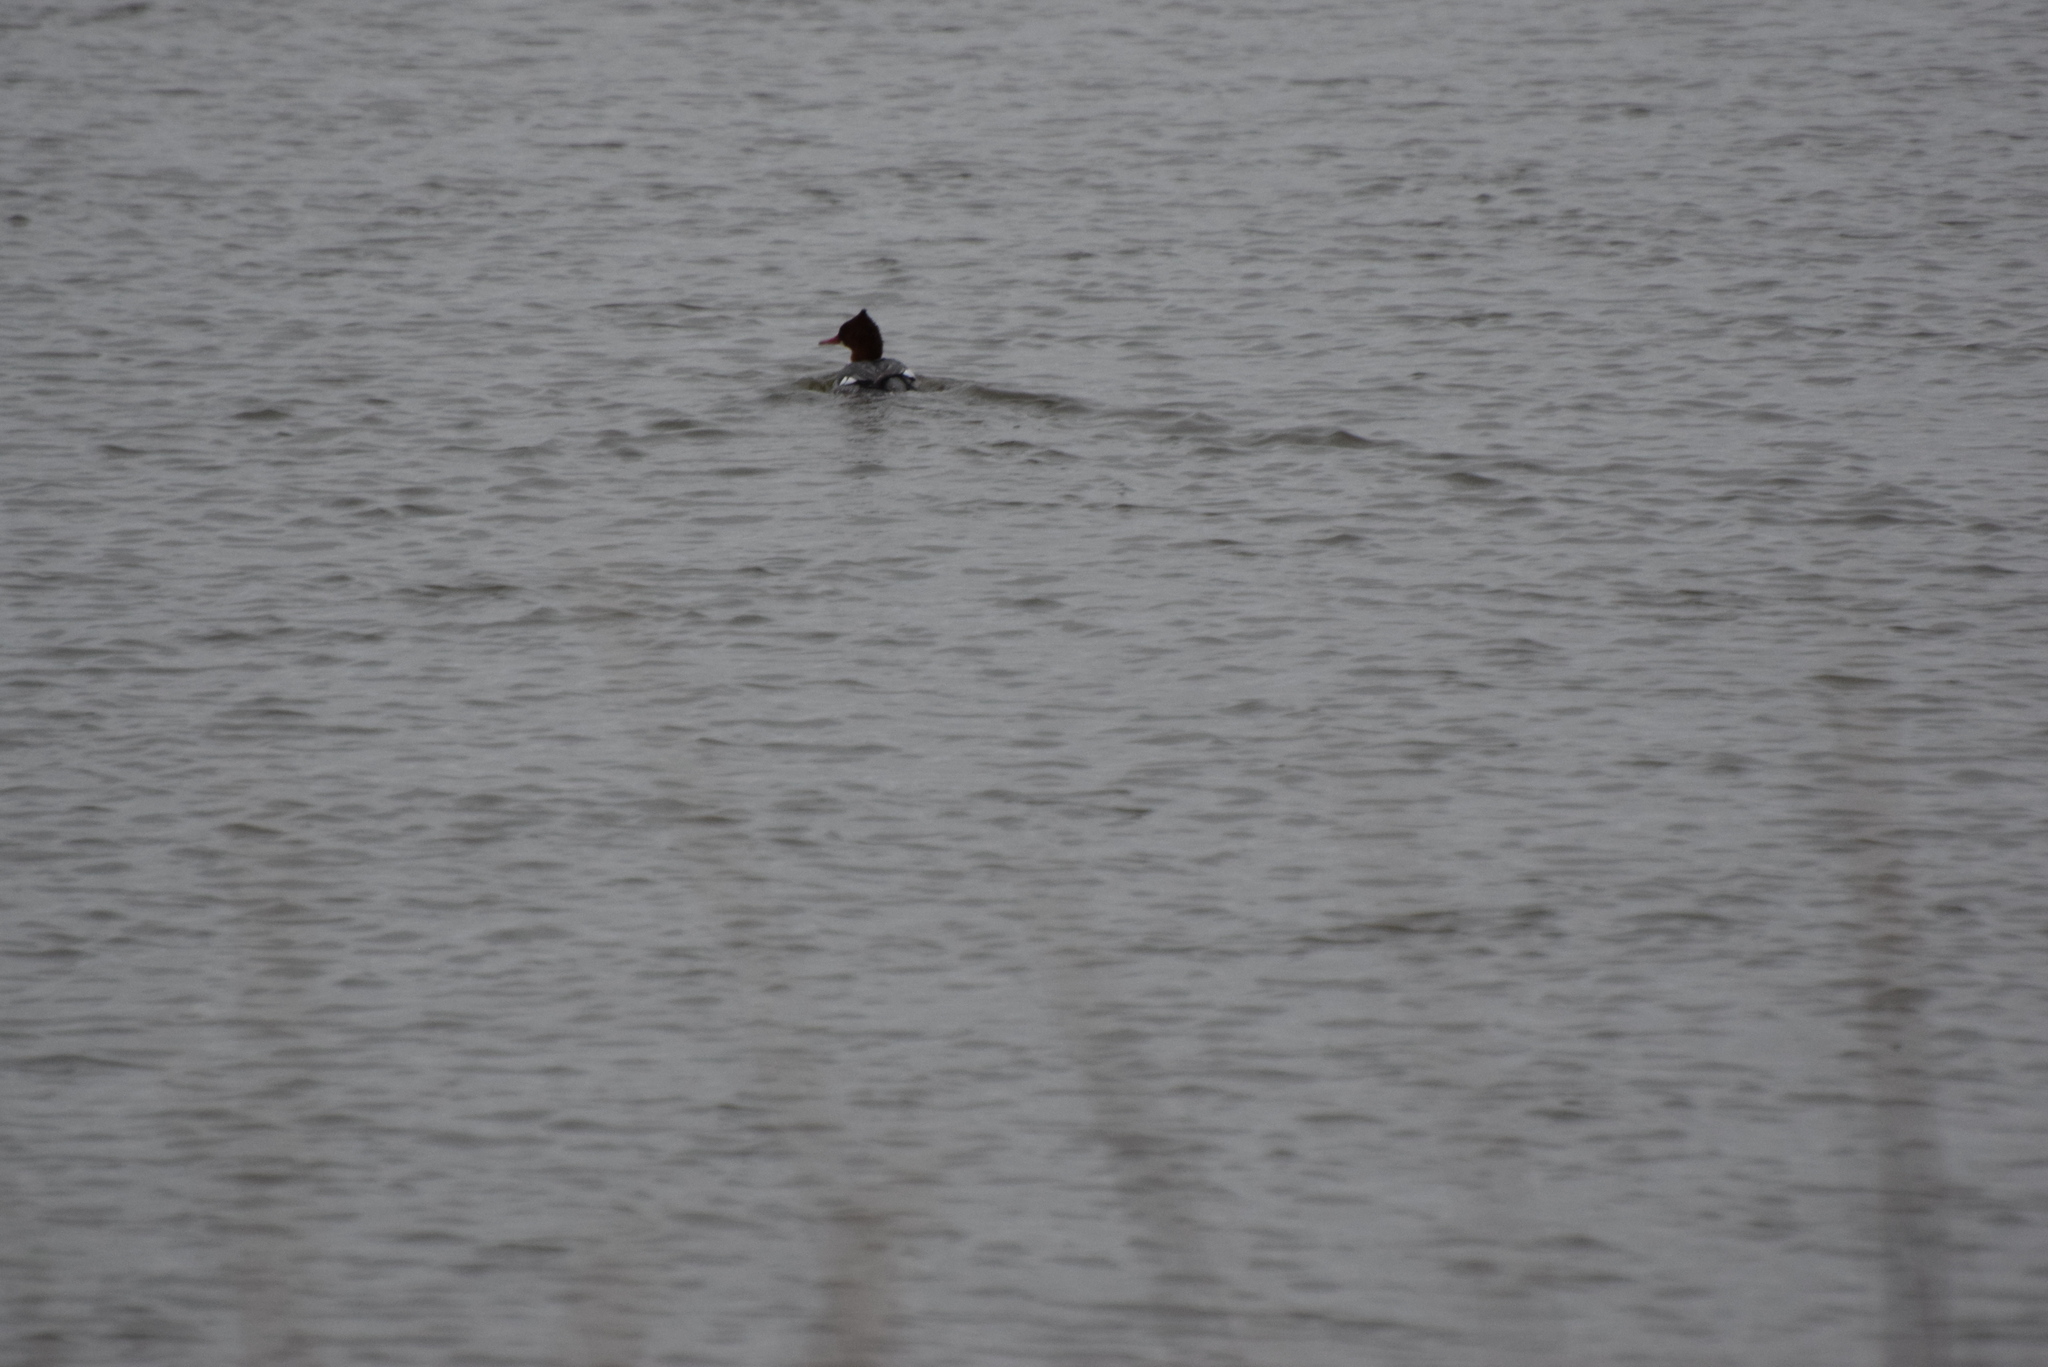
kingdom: Animalia
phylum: Chordata
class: Aves
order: Anseriformes
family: Anatidae
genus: Mergus
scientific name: Mergus merganser
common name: Common merganser
